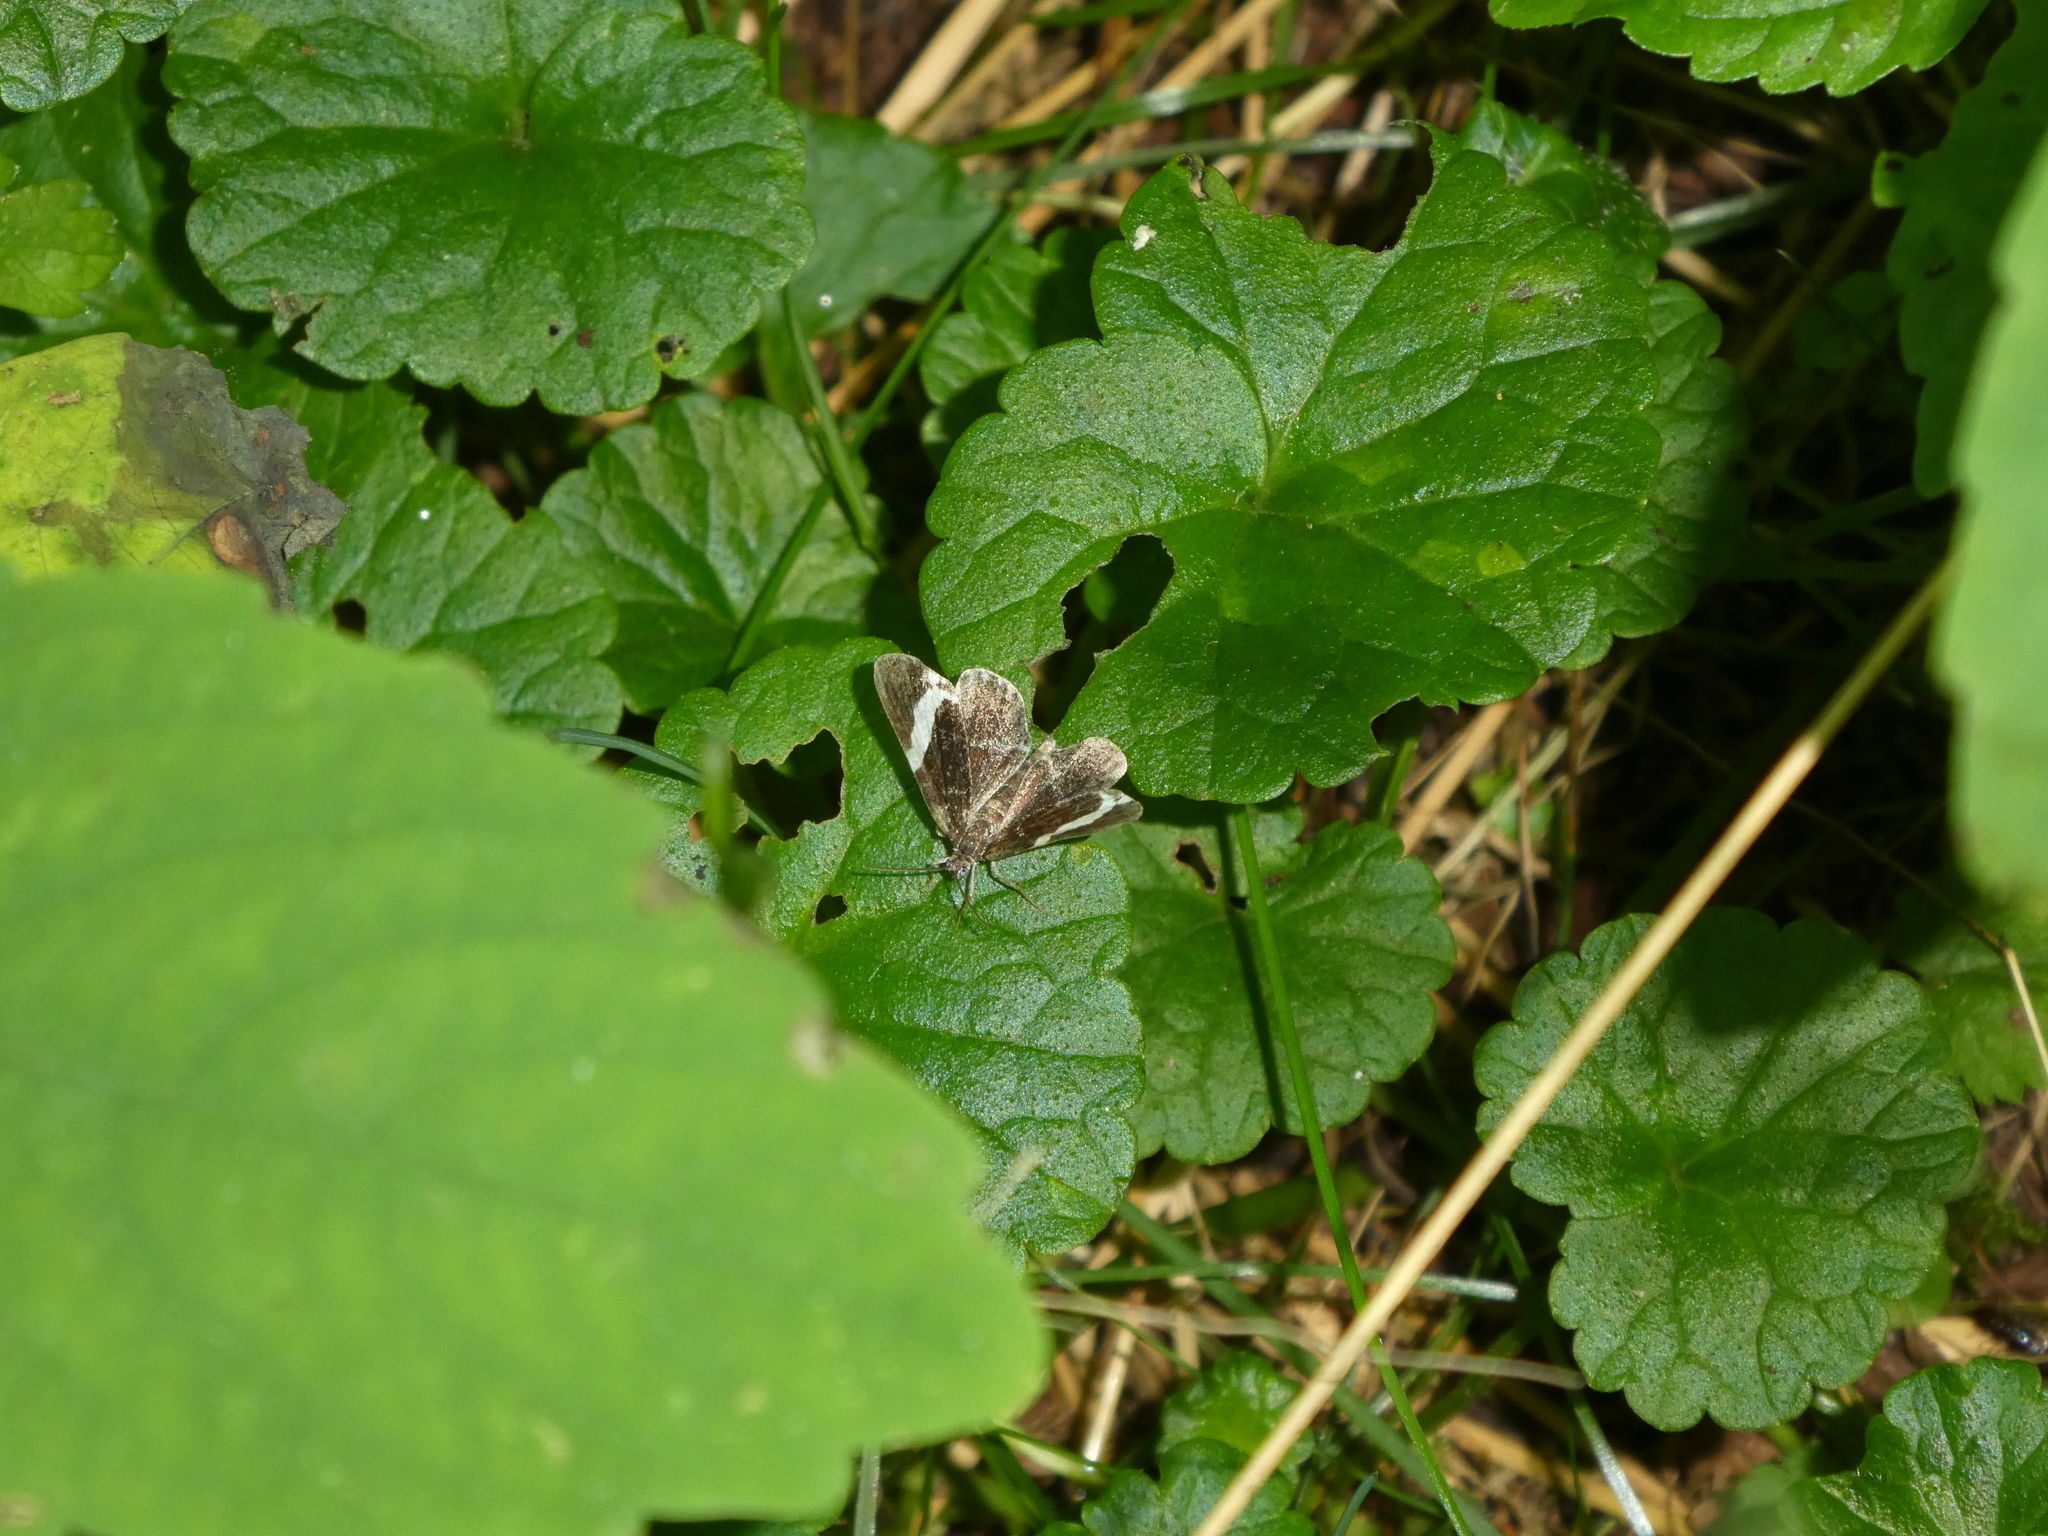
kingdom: Animalia
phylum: Arthropoda
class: Insecta
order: Lepidoptera
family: Geometridae
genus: Trichodezia
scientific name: Trichodezia albovittata
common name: White striped black
